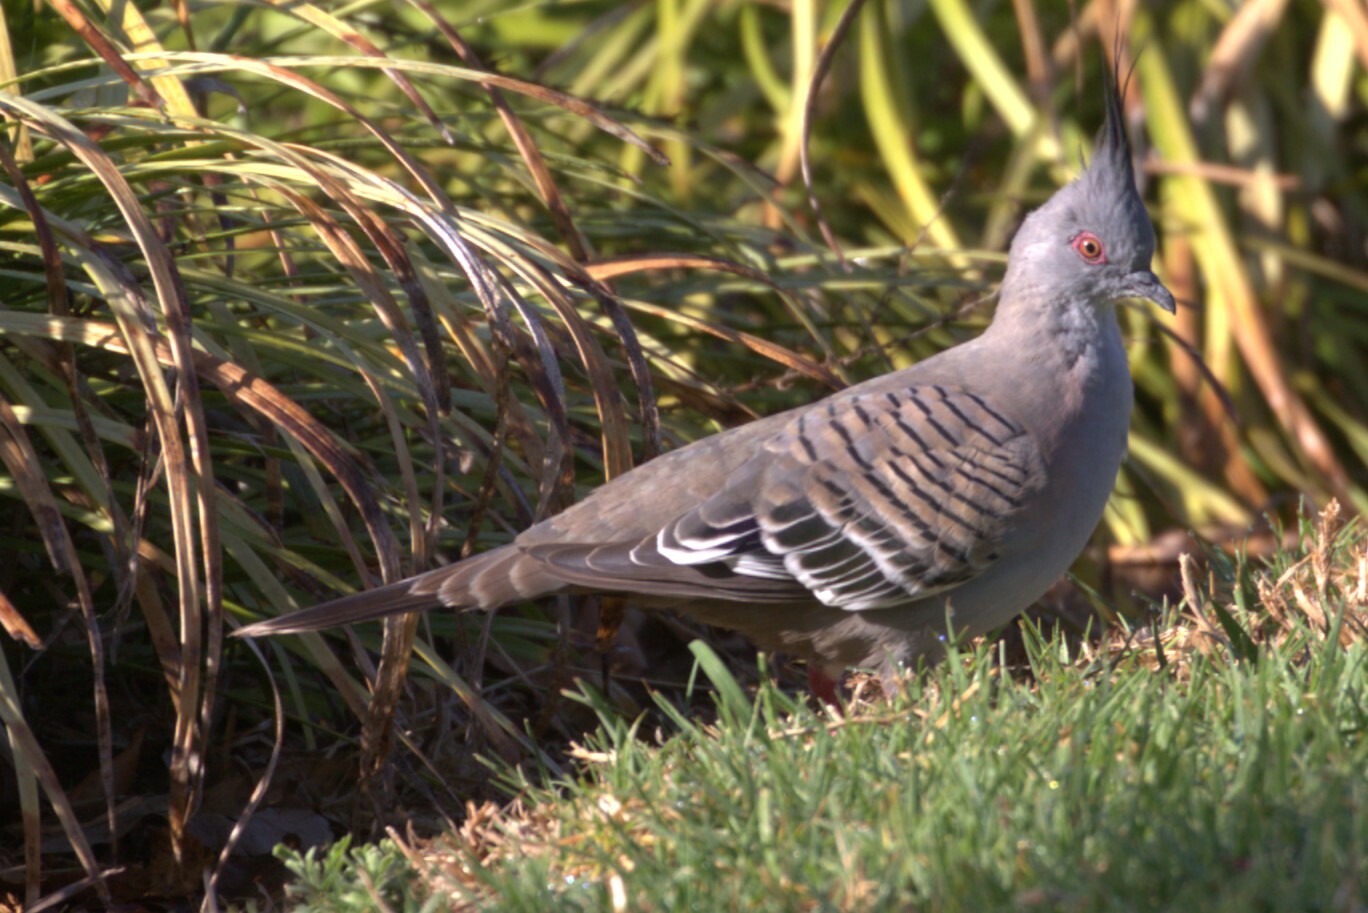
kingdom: Animalia
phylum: Chordata
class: Aves
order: Columbiformes
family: Columbidae
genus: Ocyphaps
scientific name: Ocyphaps lophotes
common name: Crested pigeon
